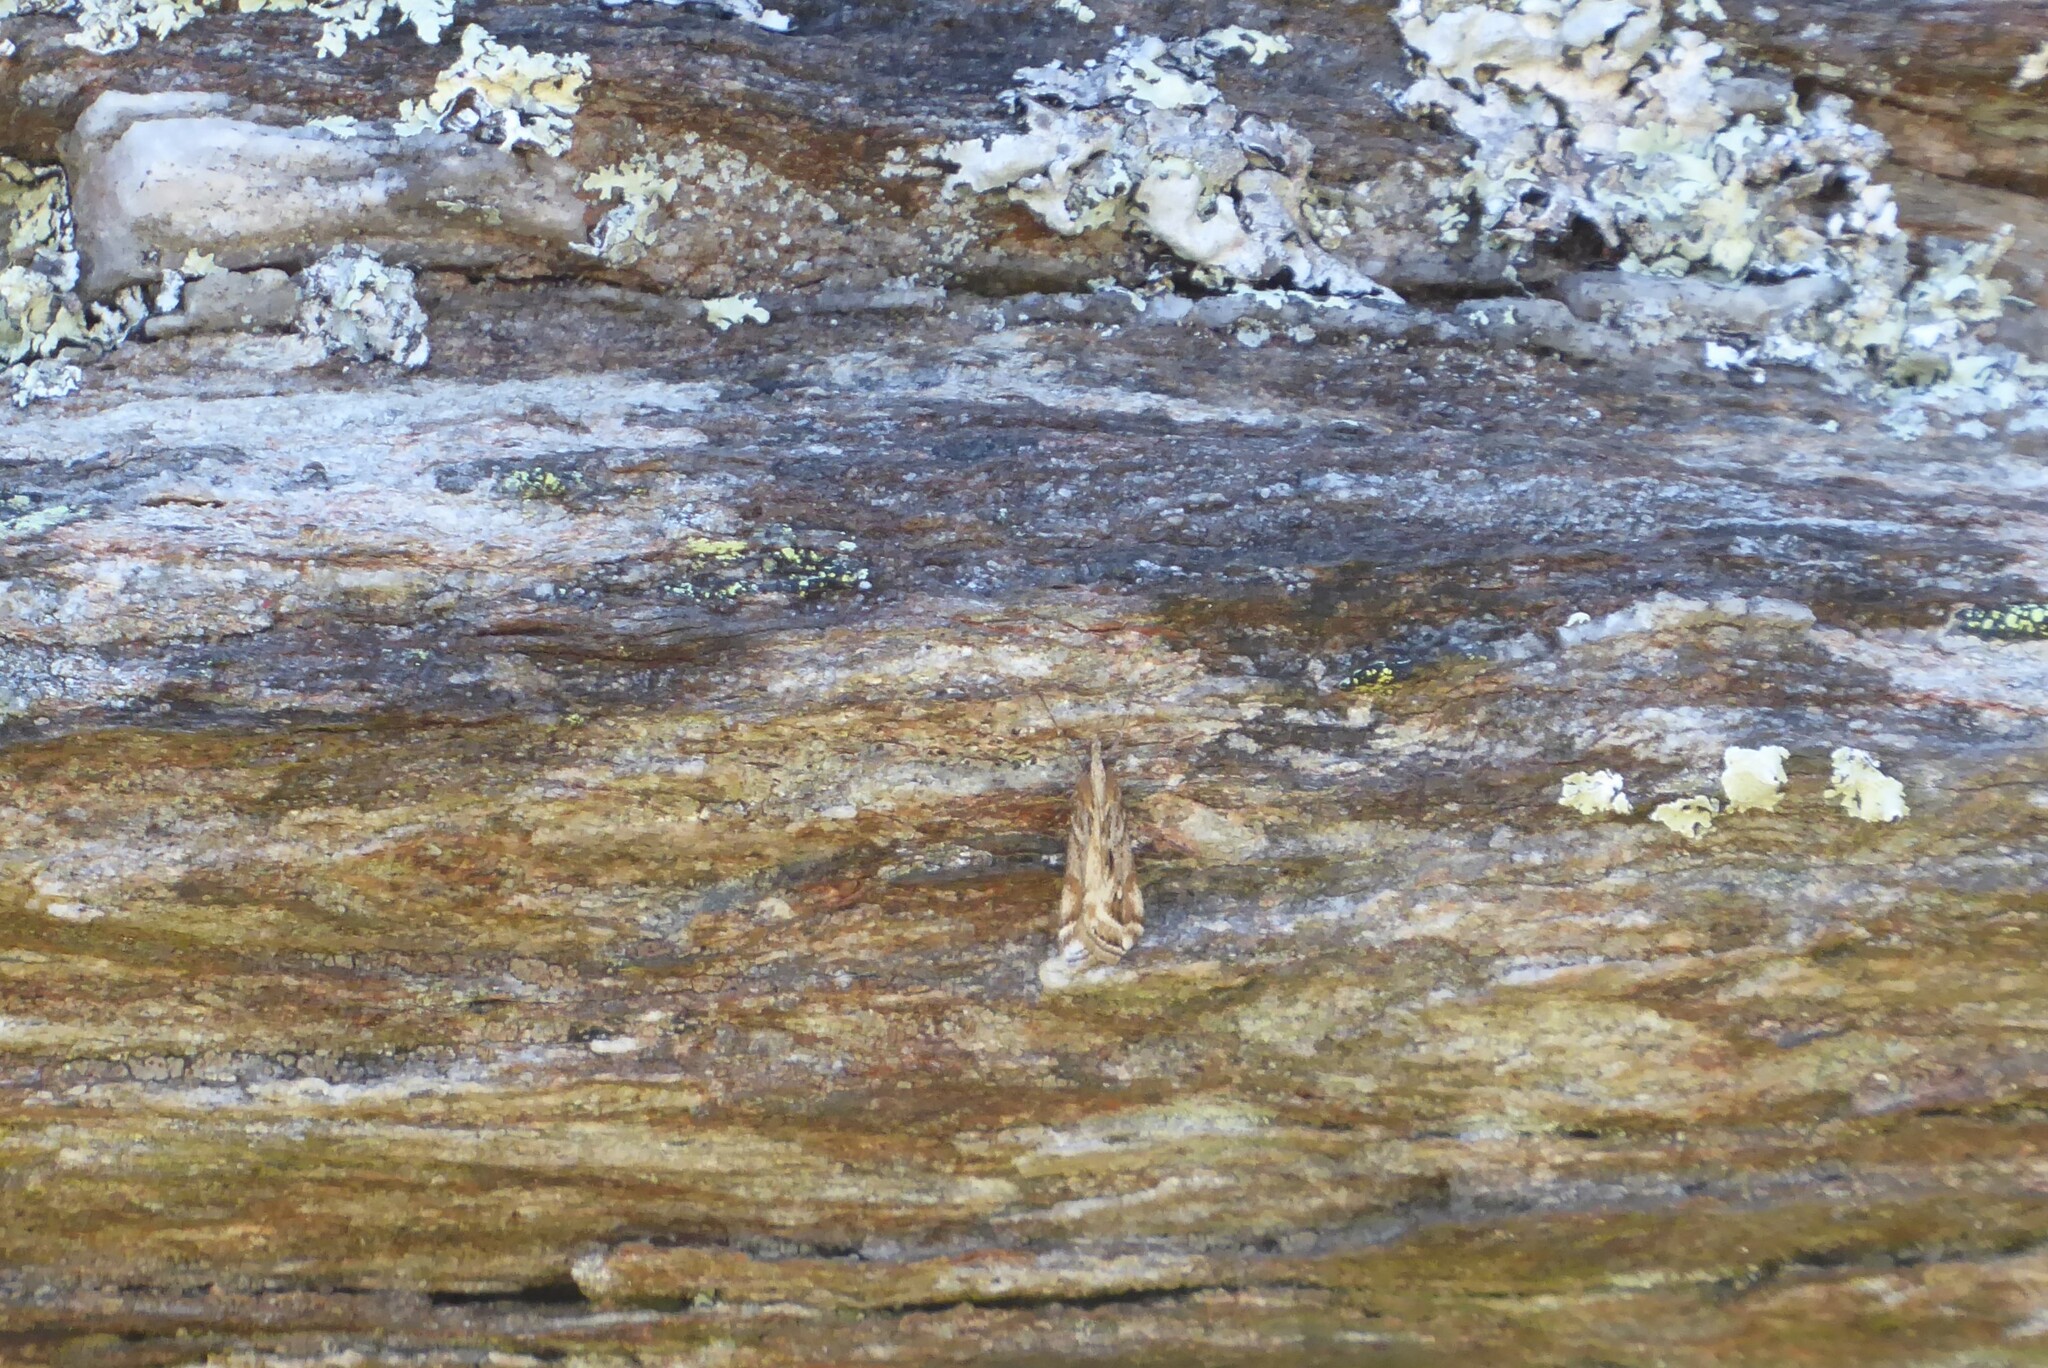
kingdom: Animalia
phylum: Arthropoda
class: Insecta
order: Lepidoptera
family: Crambidae
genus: Scoparia
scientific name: Scoparia exilis
